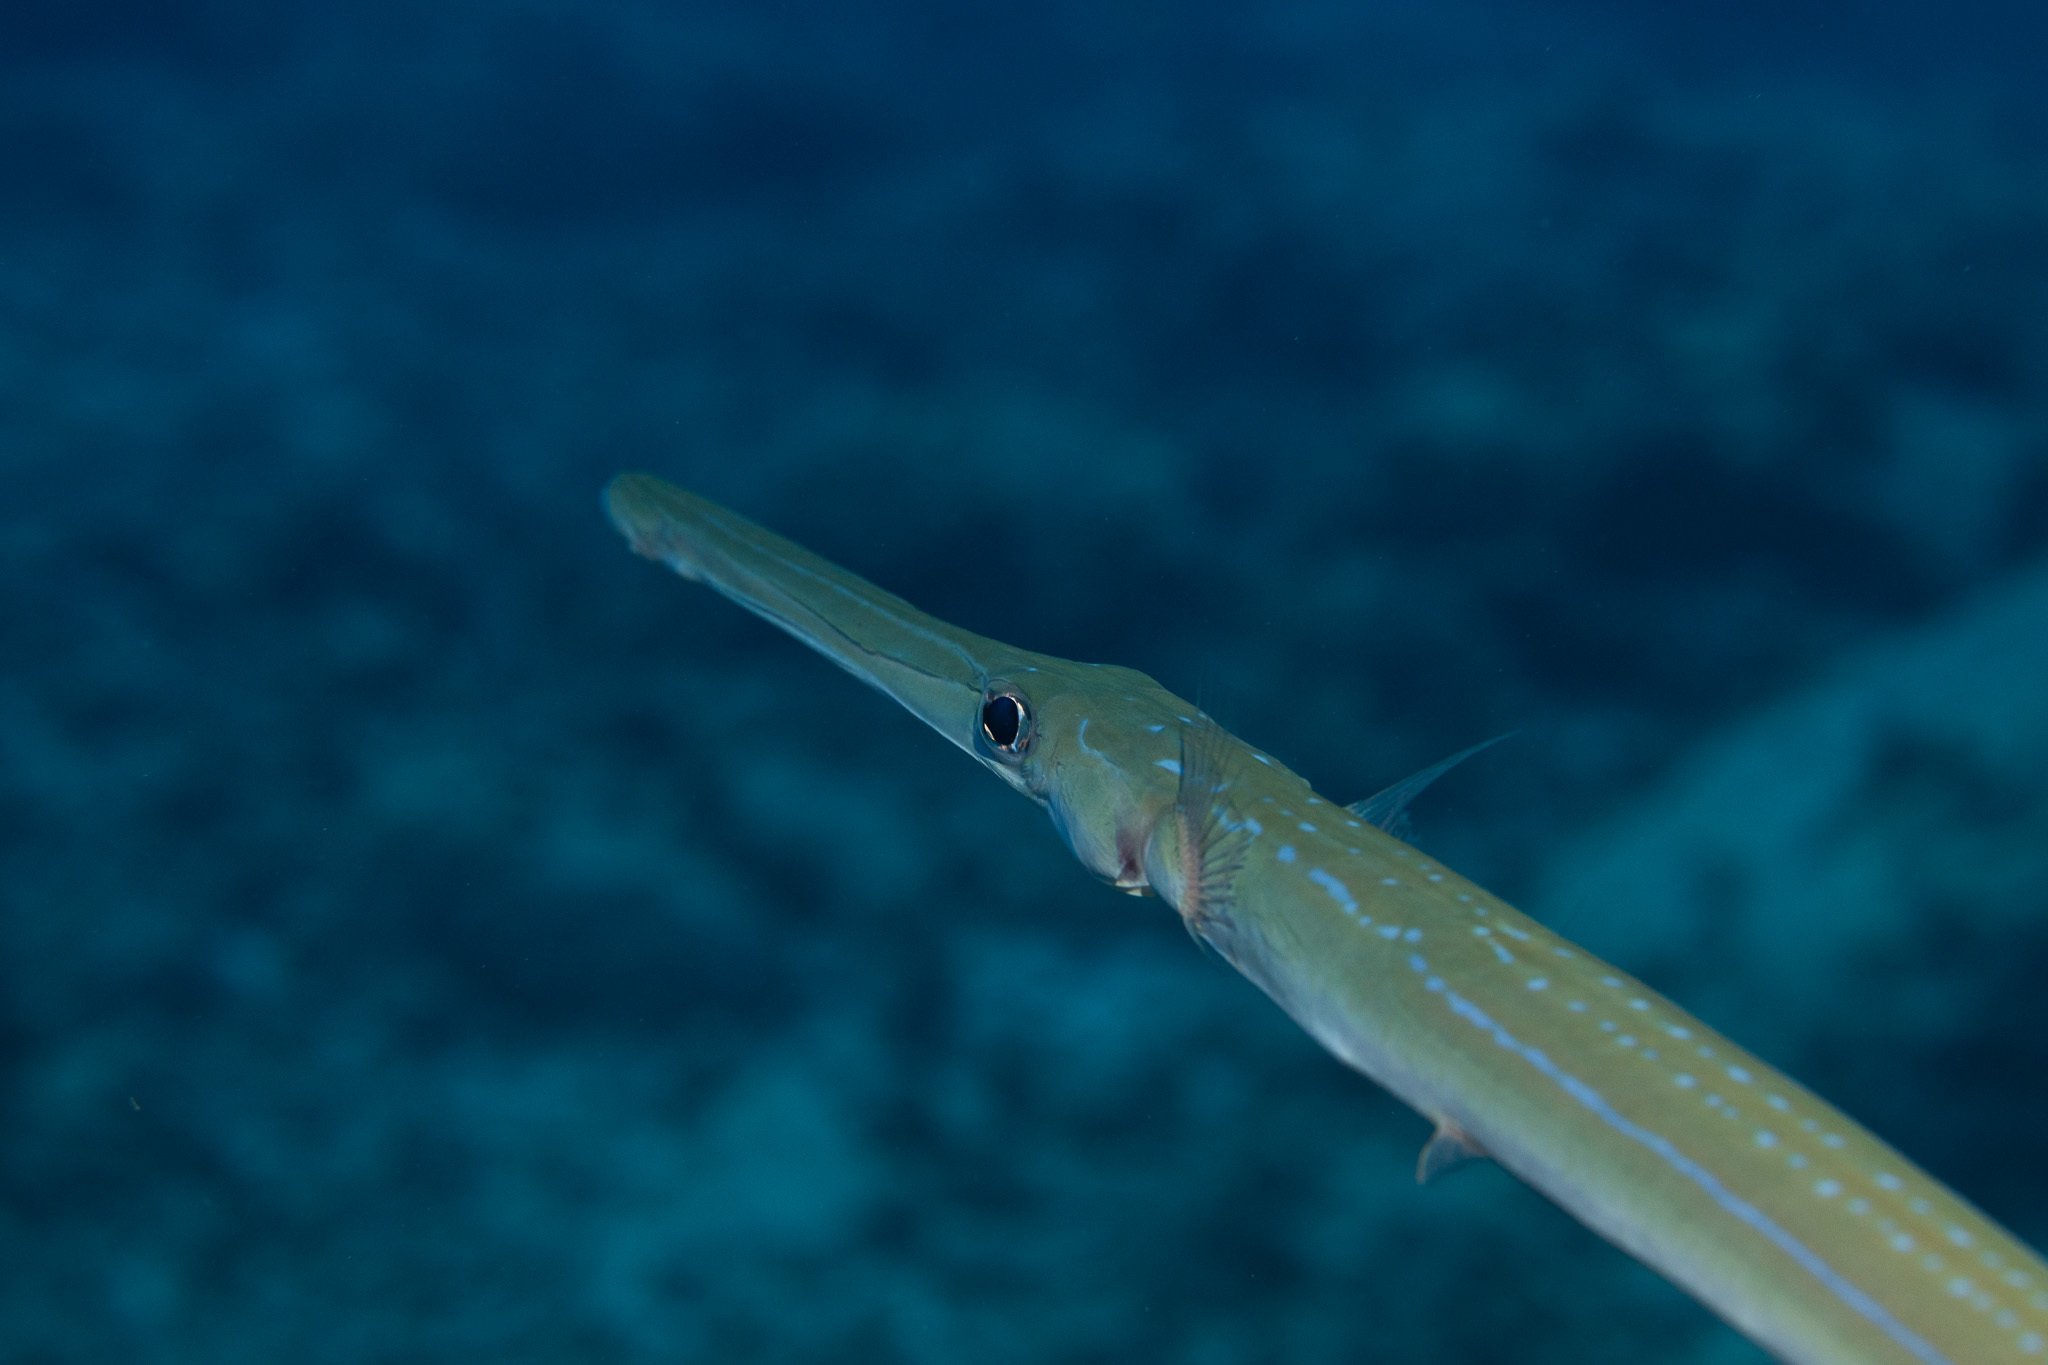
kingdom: Animalia
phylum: Chordata
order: Syngnathiformes
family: Fistulariidae
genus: Fistularia
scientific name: Fistularia commersonii
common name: Bluespotted cornetfish
